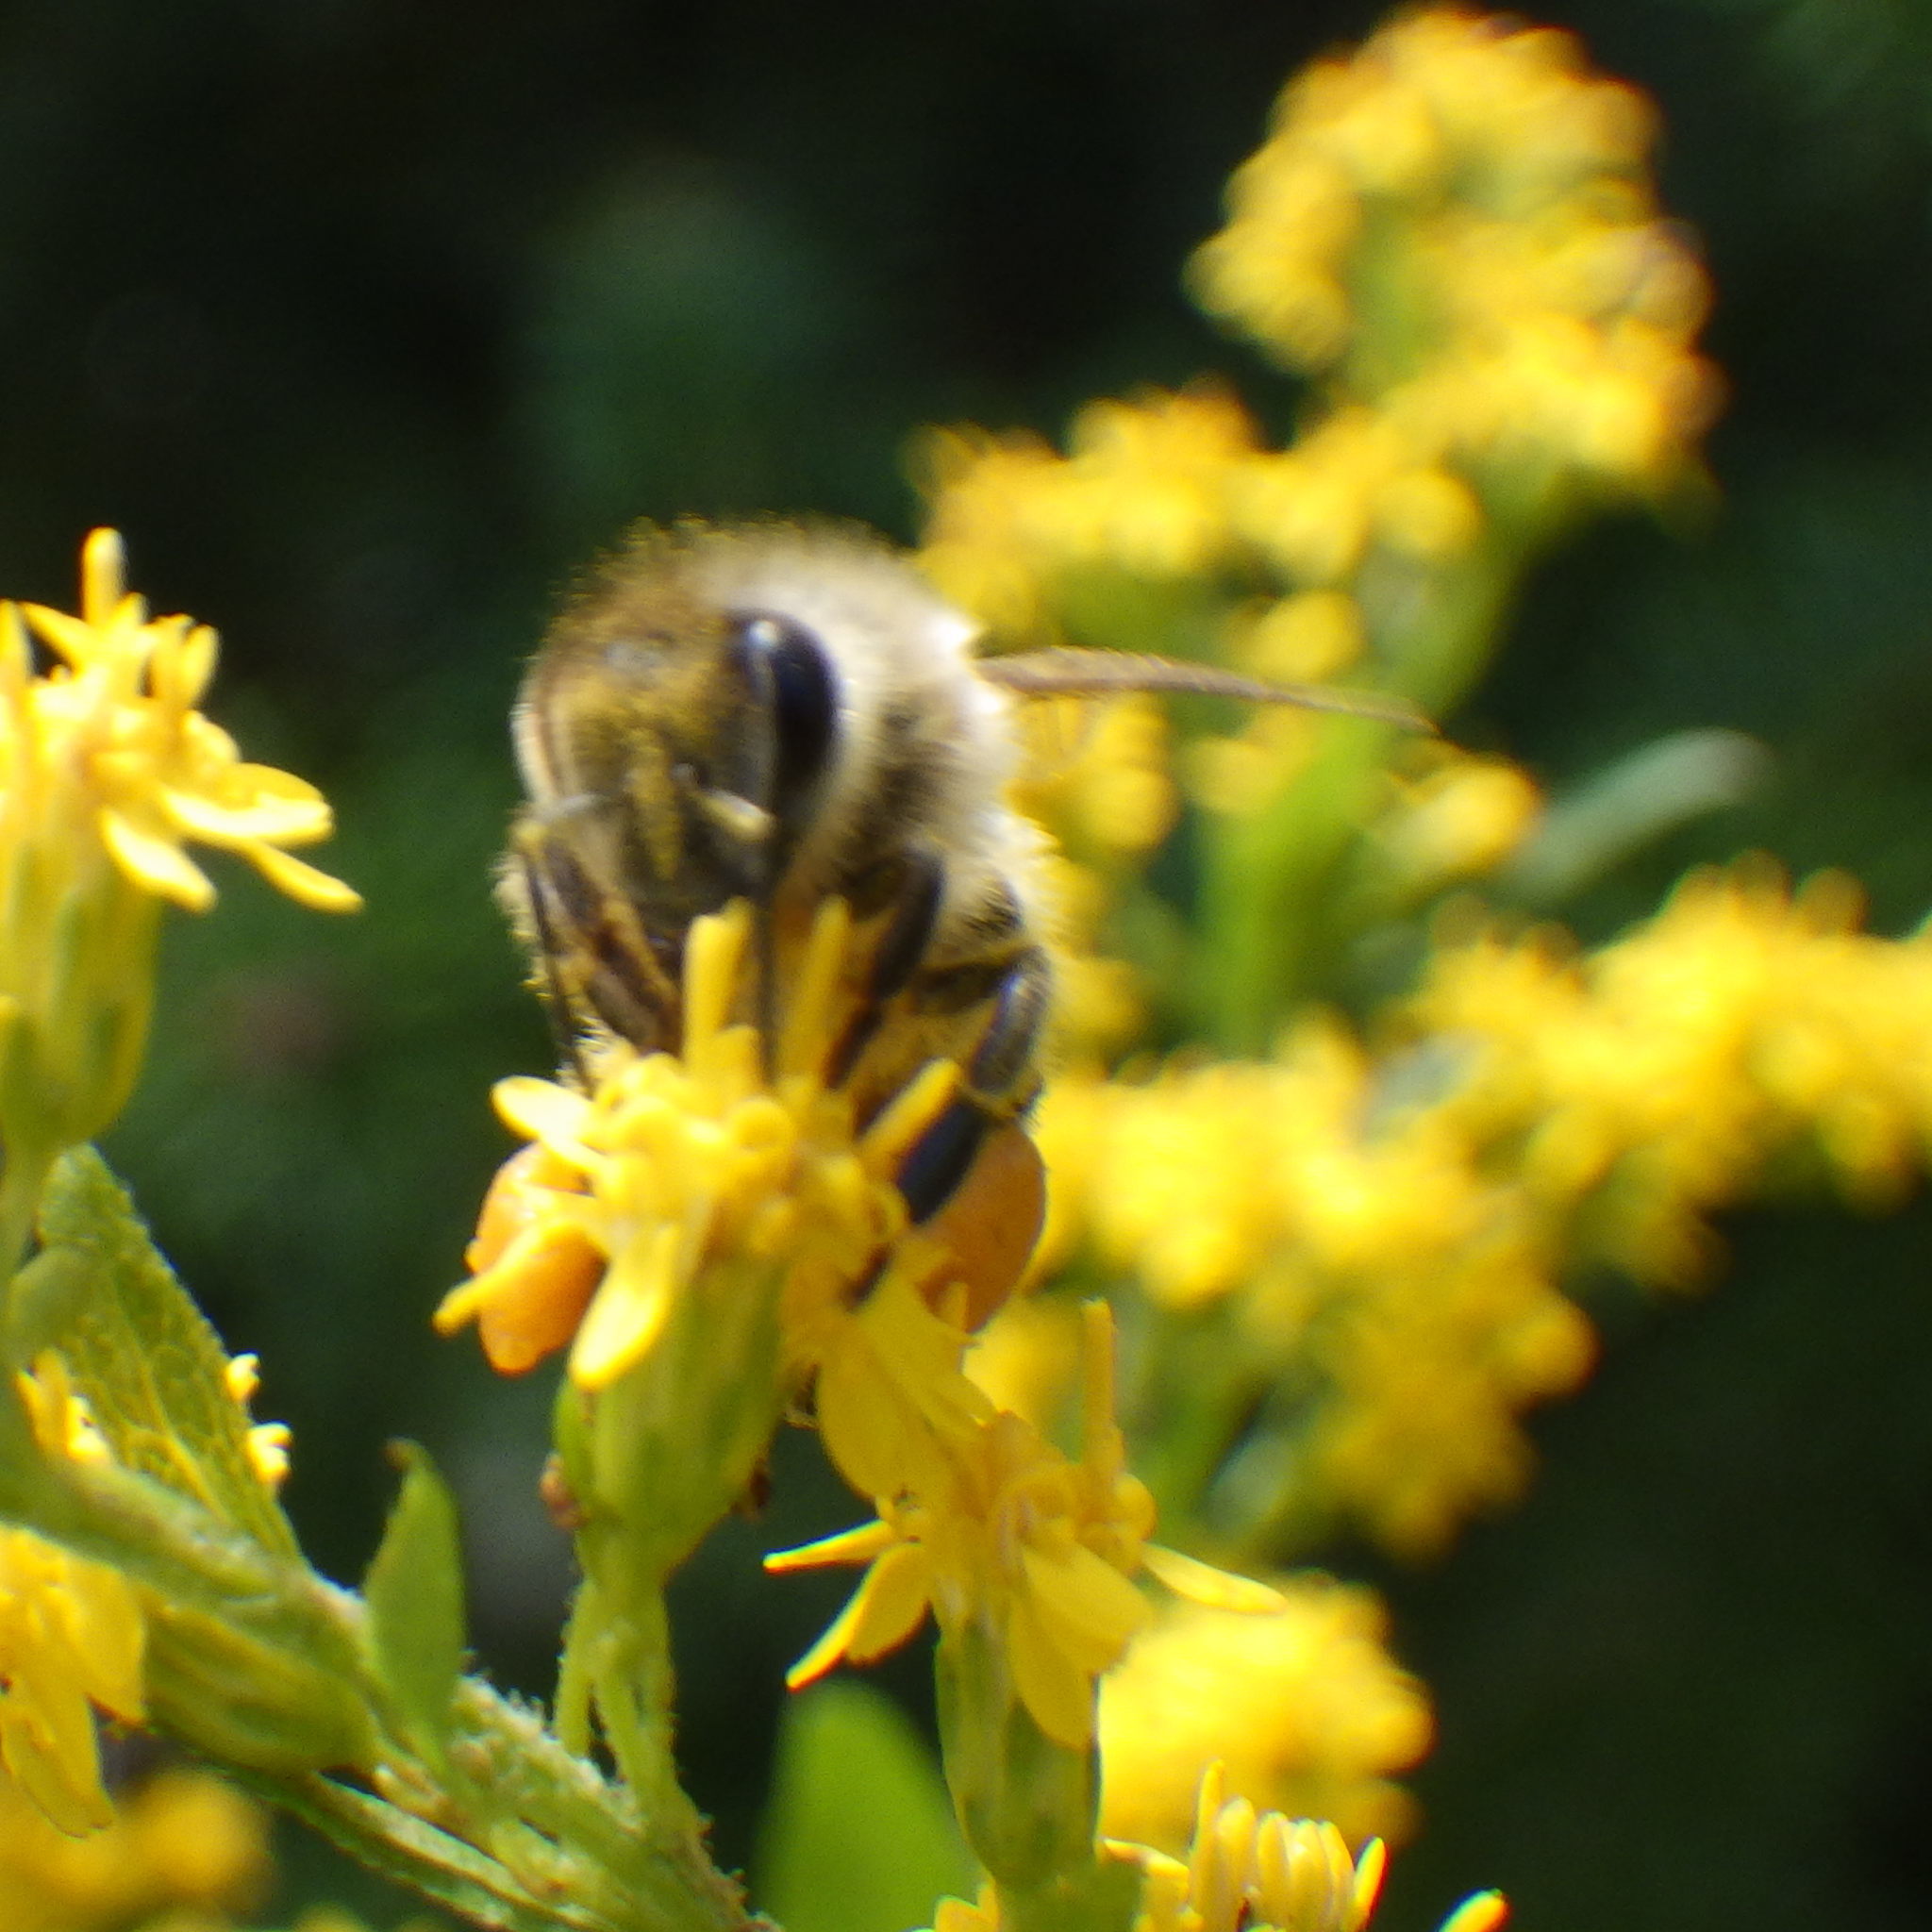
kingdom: Animalia
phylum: Arthropoda
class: Insecta
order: Hymenoptera
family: Apidae
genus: Apis
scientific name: Apis mellifera
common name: Honey bee
